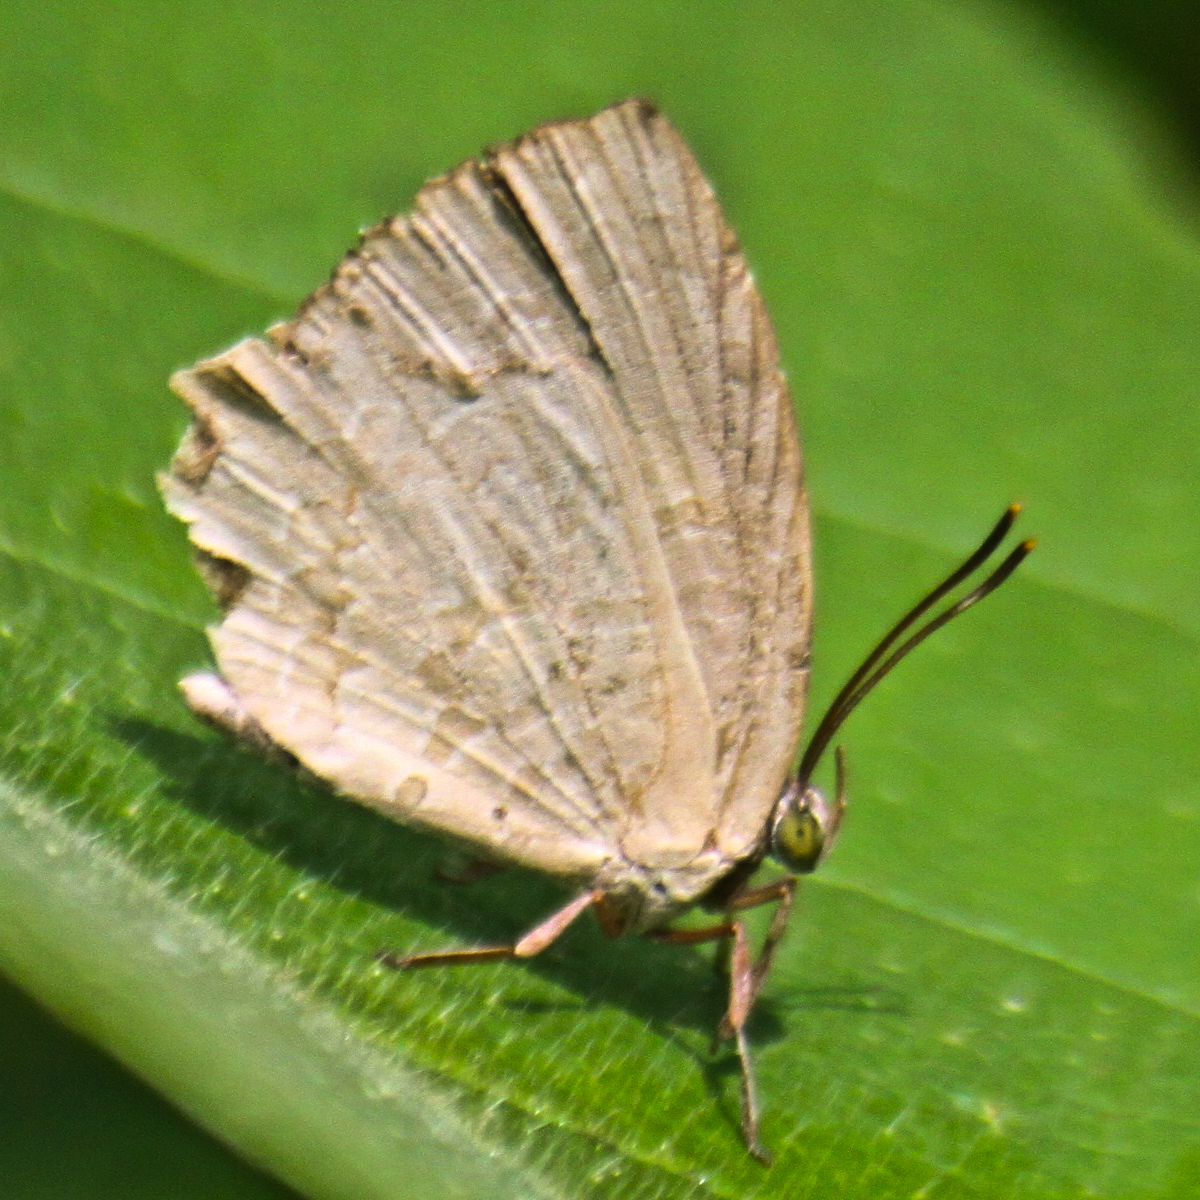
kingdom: Animalia
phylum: Arthropoda
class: Insecta
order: Lepidoptera
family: Lycaenidae
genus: Miletus
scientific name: Miletus chinensis
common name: Common brownie
